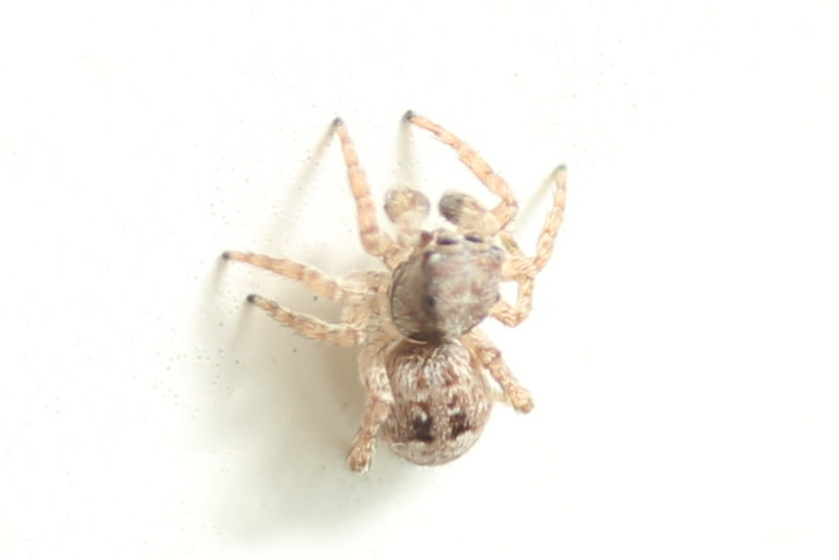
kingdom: Animalia
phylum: Arthropoda
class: Arachnida
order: Araneae
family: Salticidae
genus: Attulus
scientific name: Attulus fasciger
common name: Asiatic wall jumping spider
